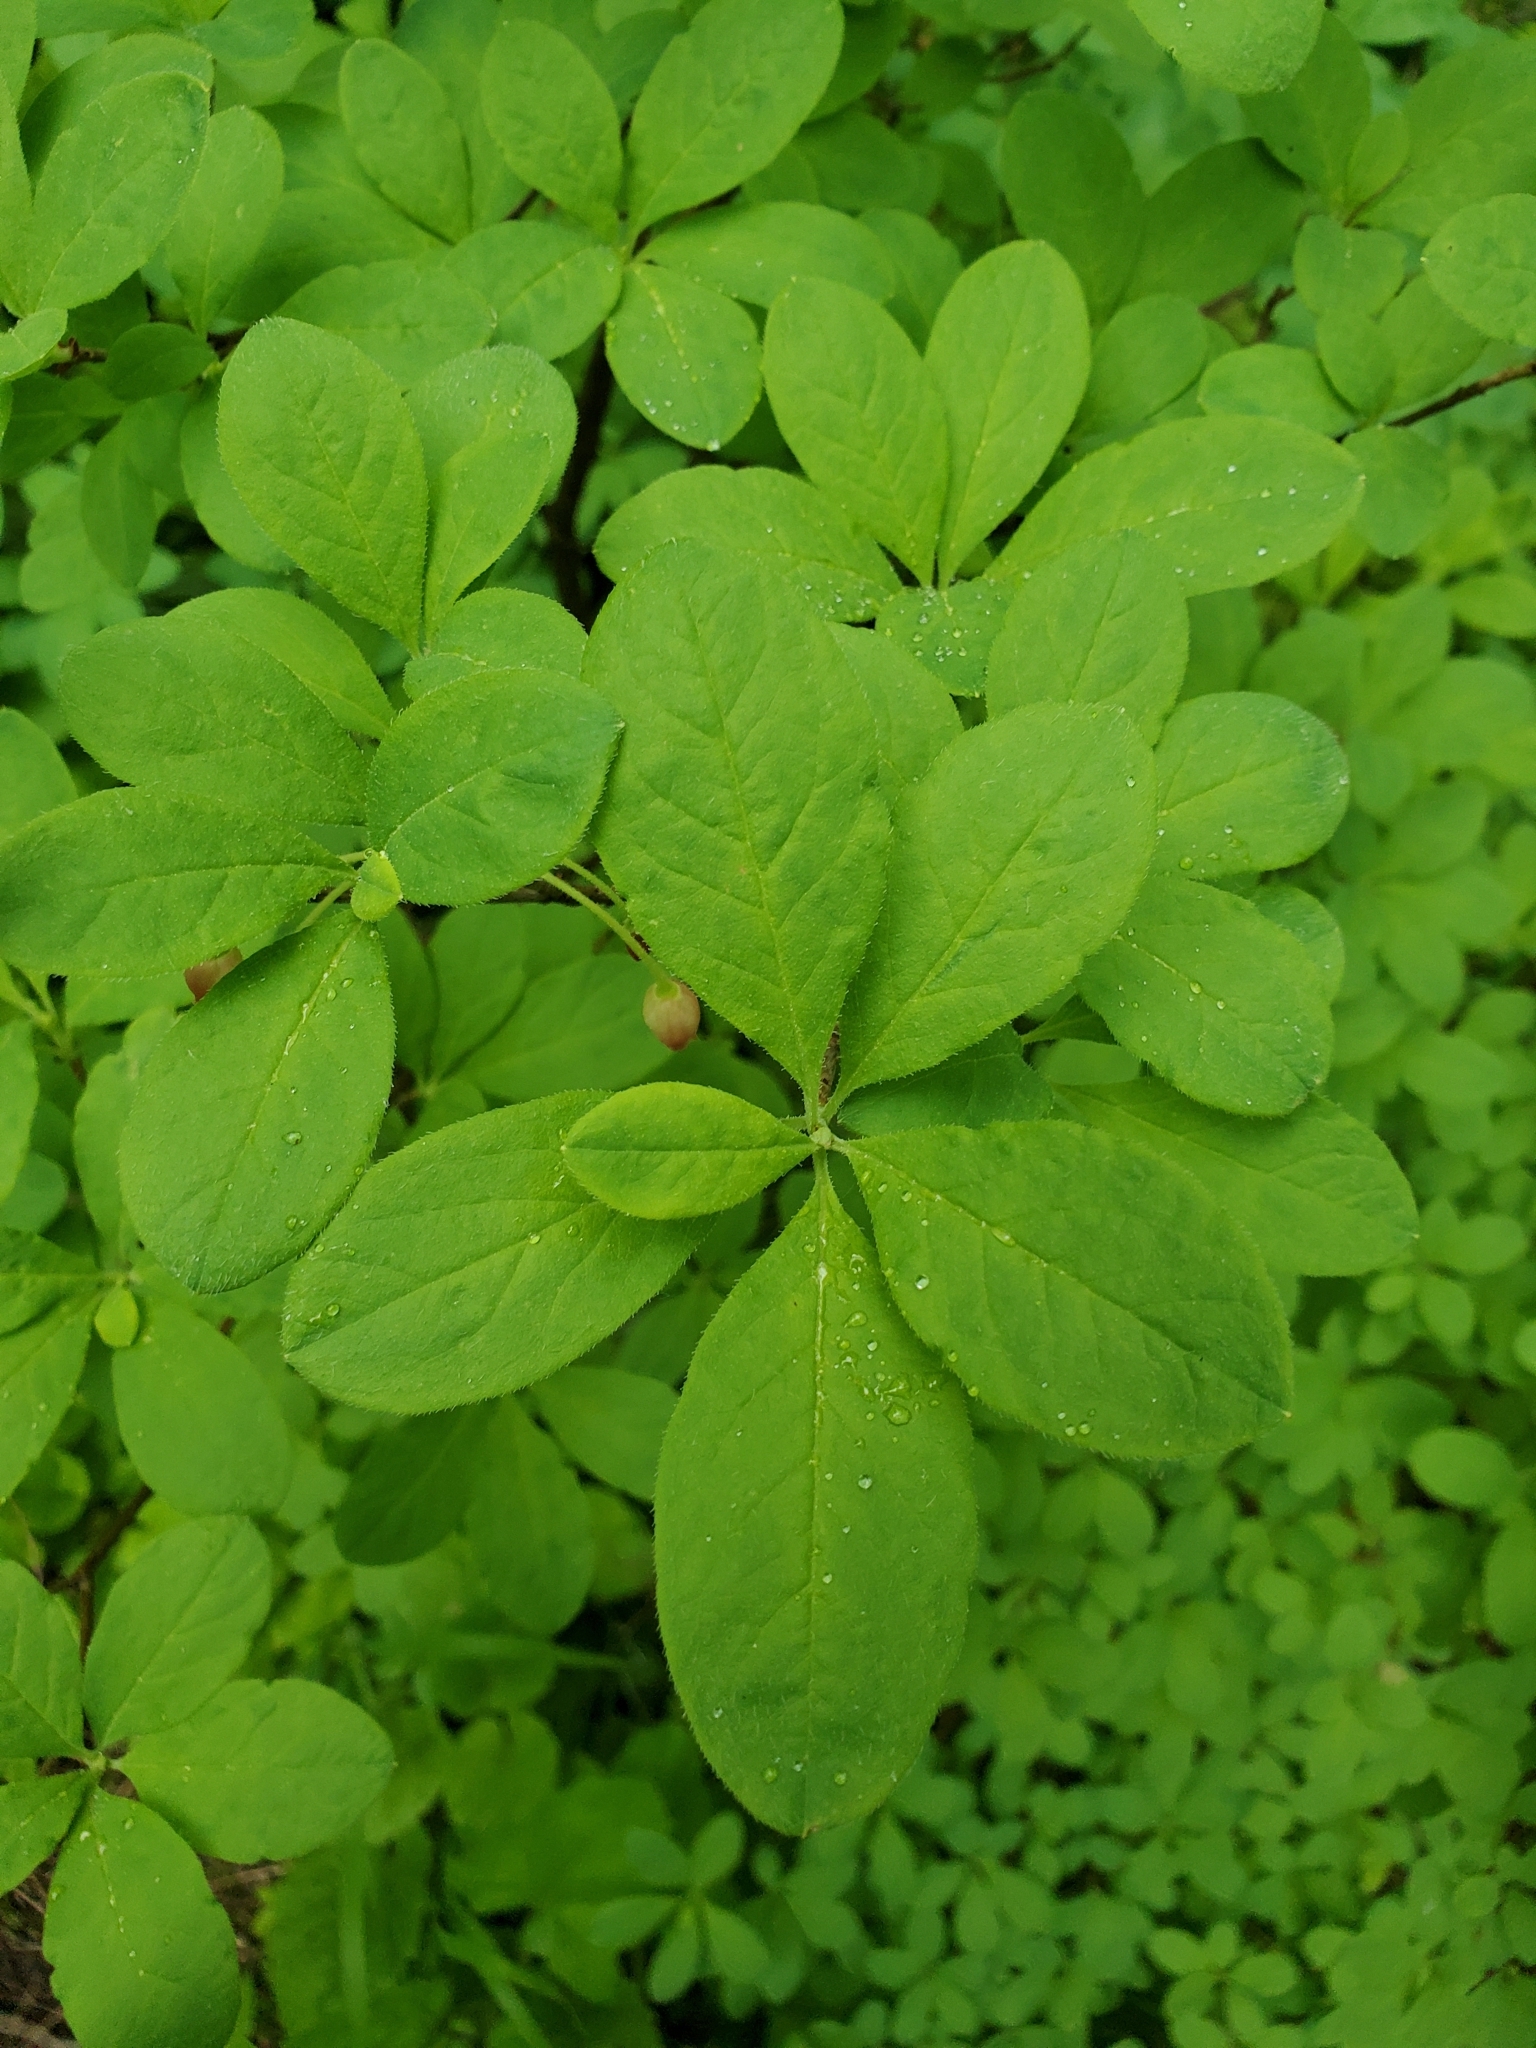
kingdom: Plantae
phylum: Tracheophyta
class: Magnoliopsida
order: Ericales
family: Ericaceae
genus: Rhododendron
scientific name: Rhododendron menziesii
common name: Pacific menziesia
